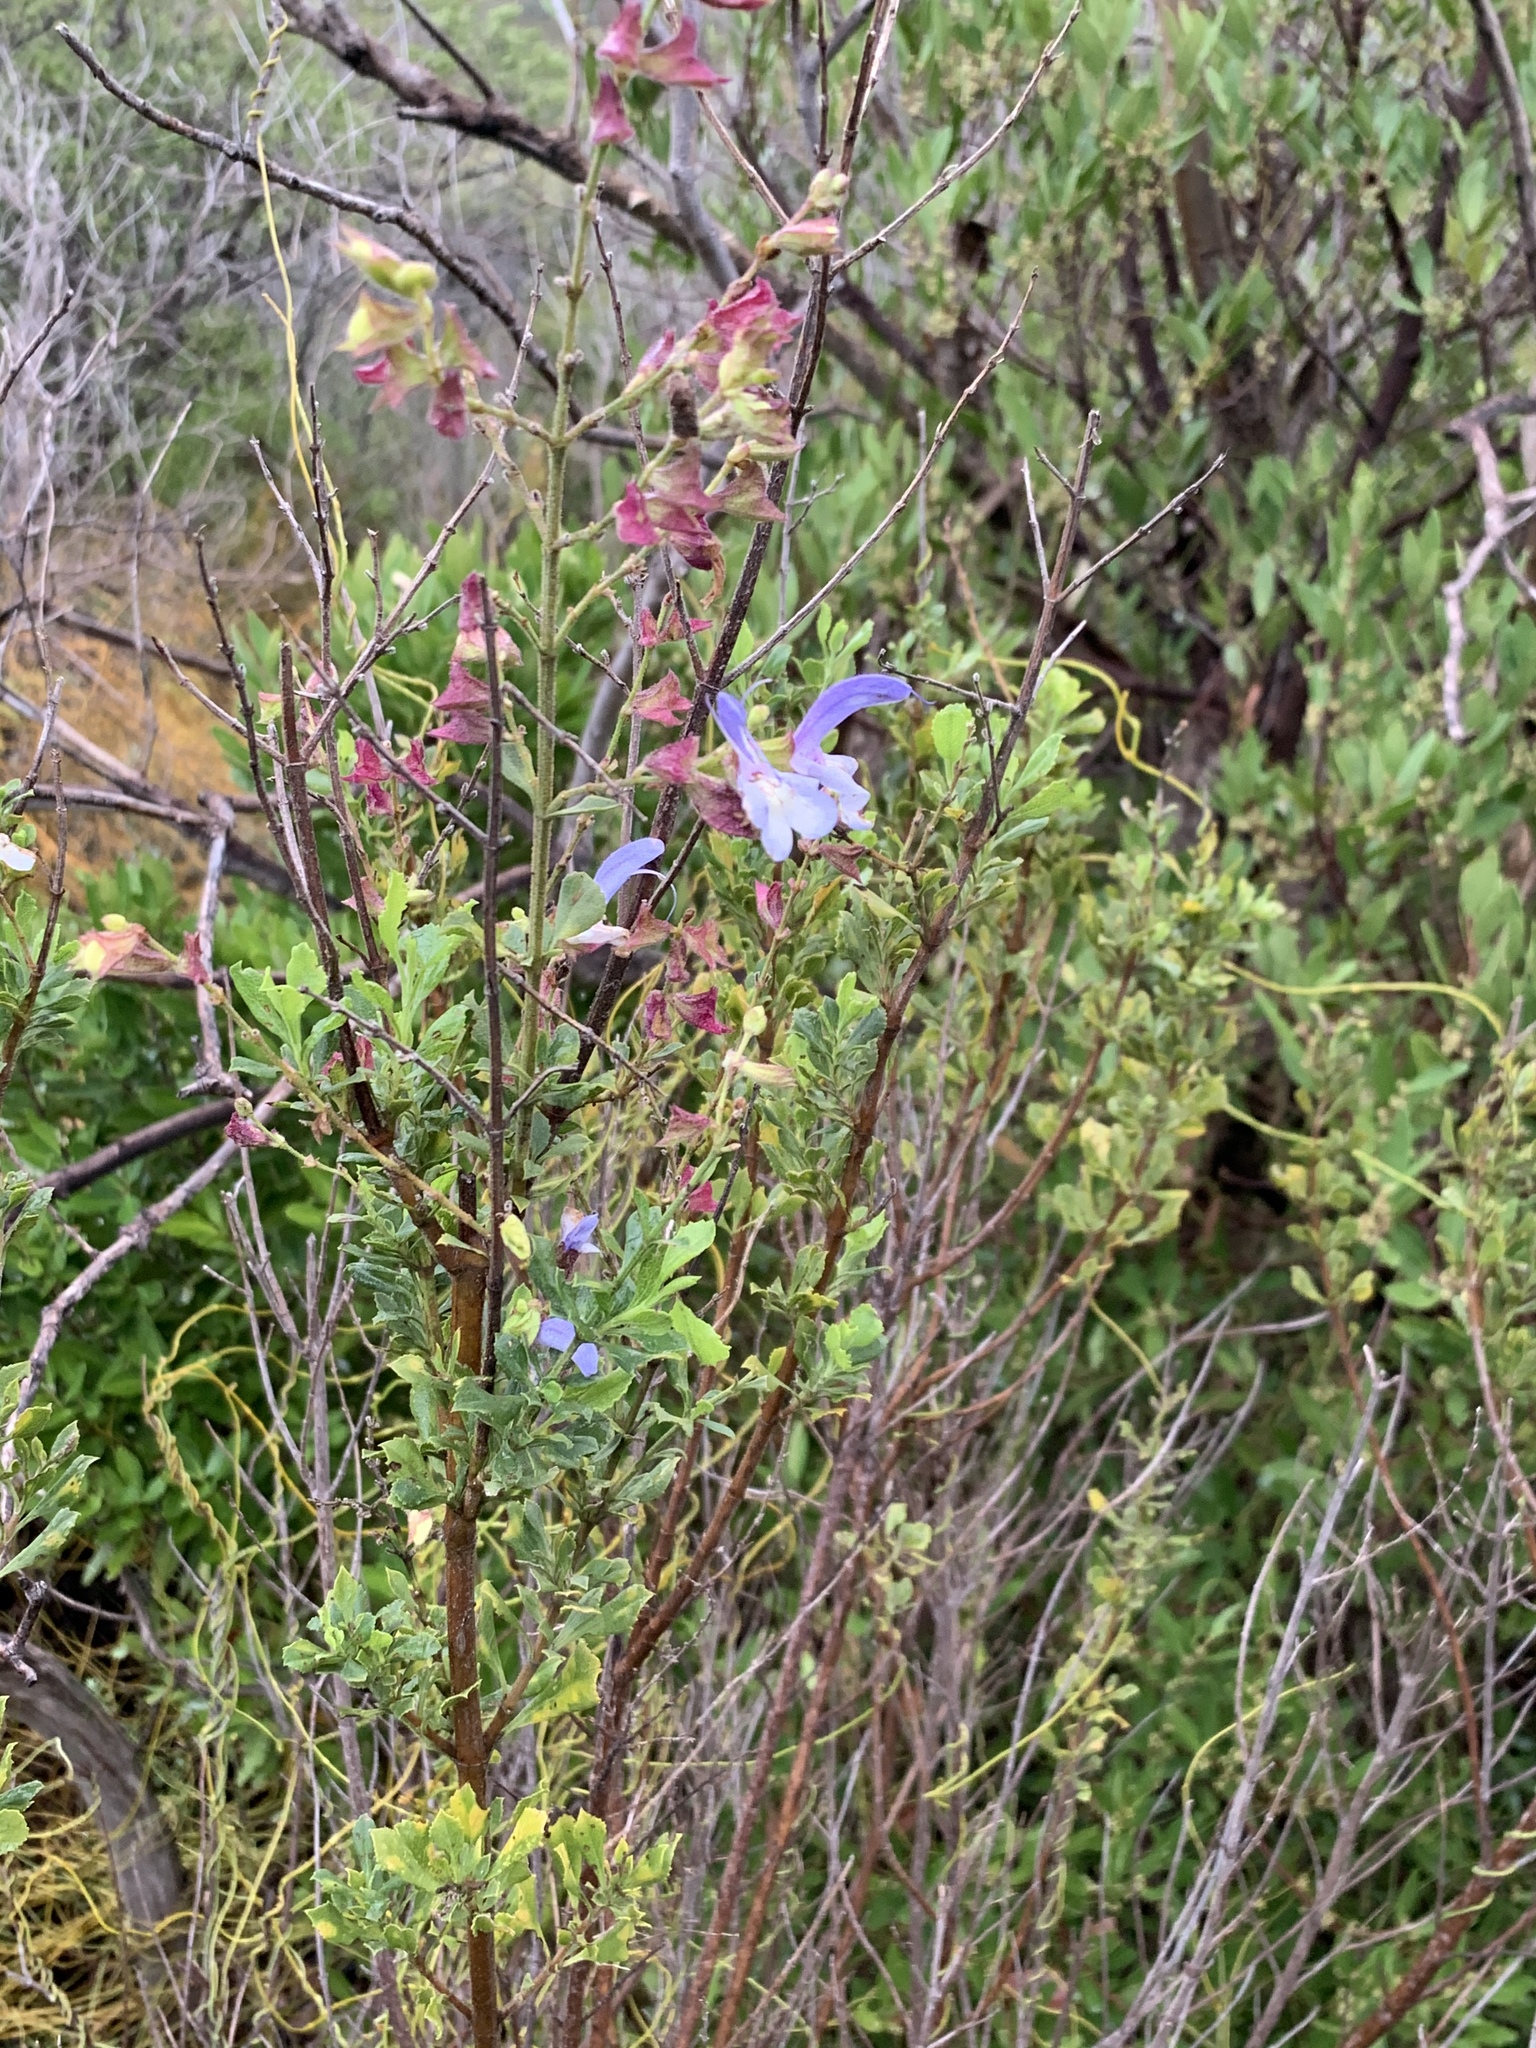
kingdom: Plantae
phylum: Tracheophyta
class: Magnoliopsida
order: Lamiales
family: Lamiaceae
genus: Salvia
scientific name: Salvia chamelaeagnea
